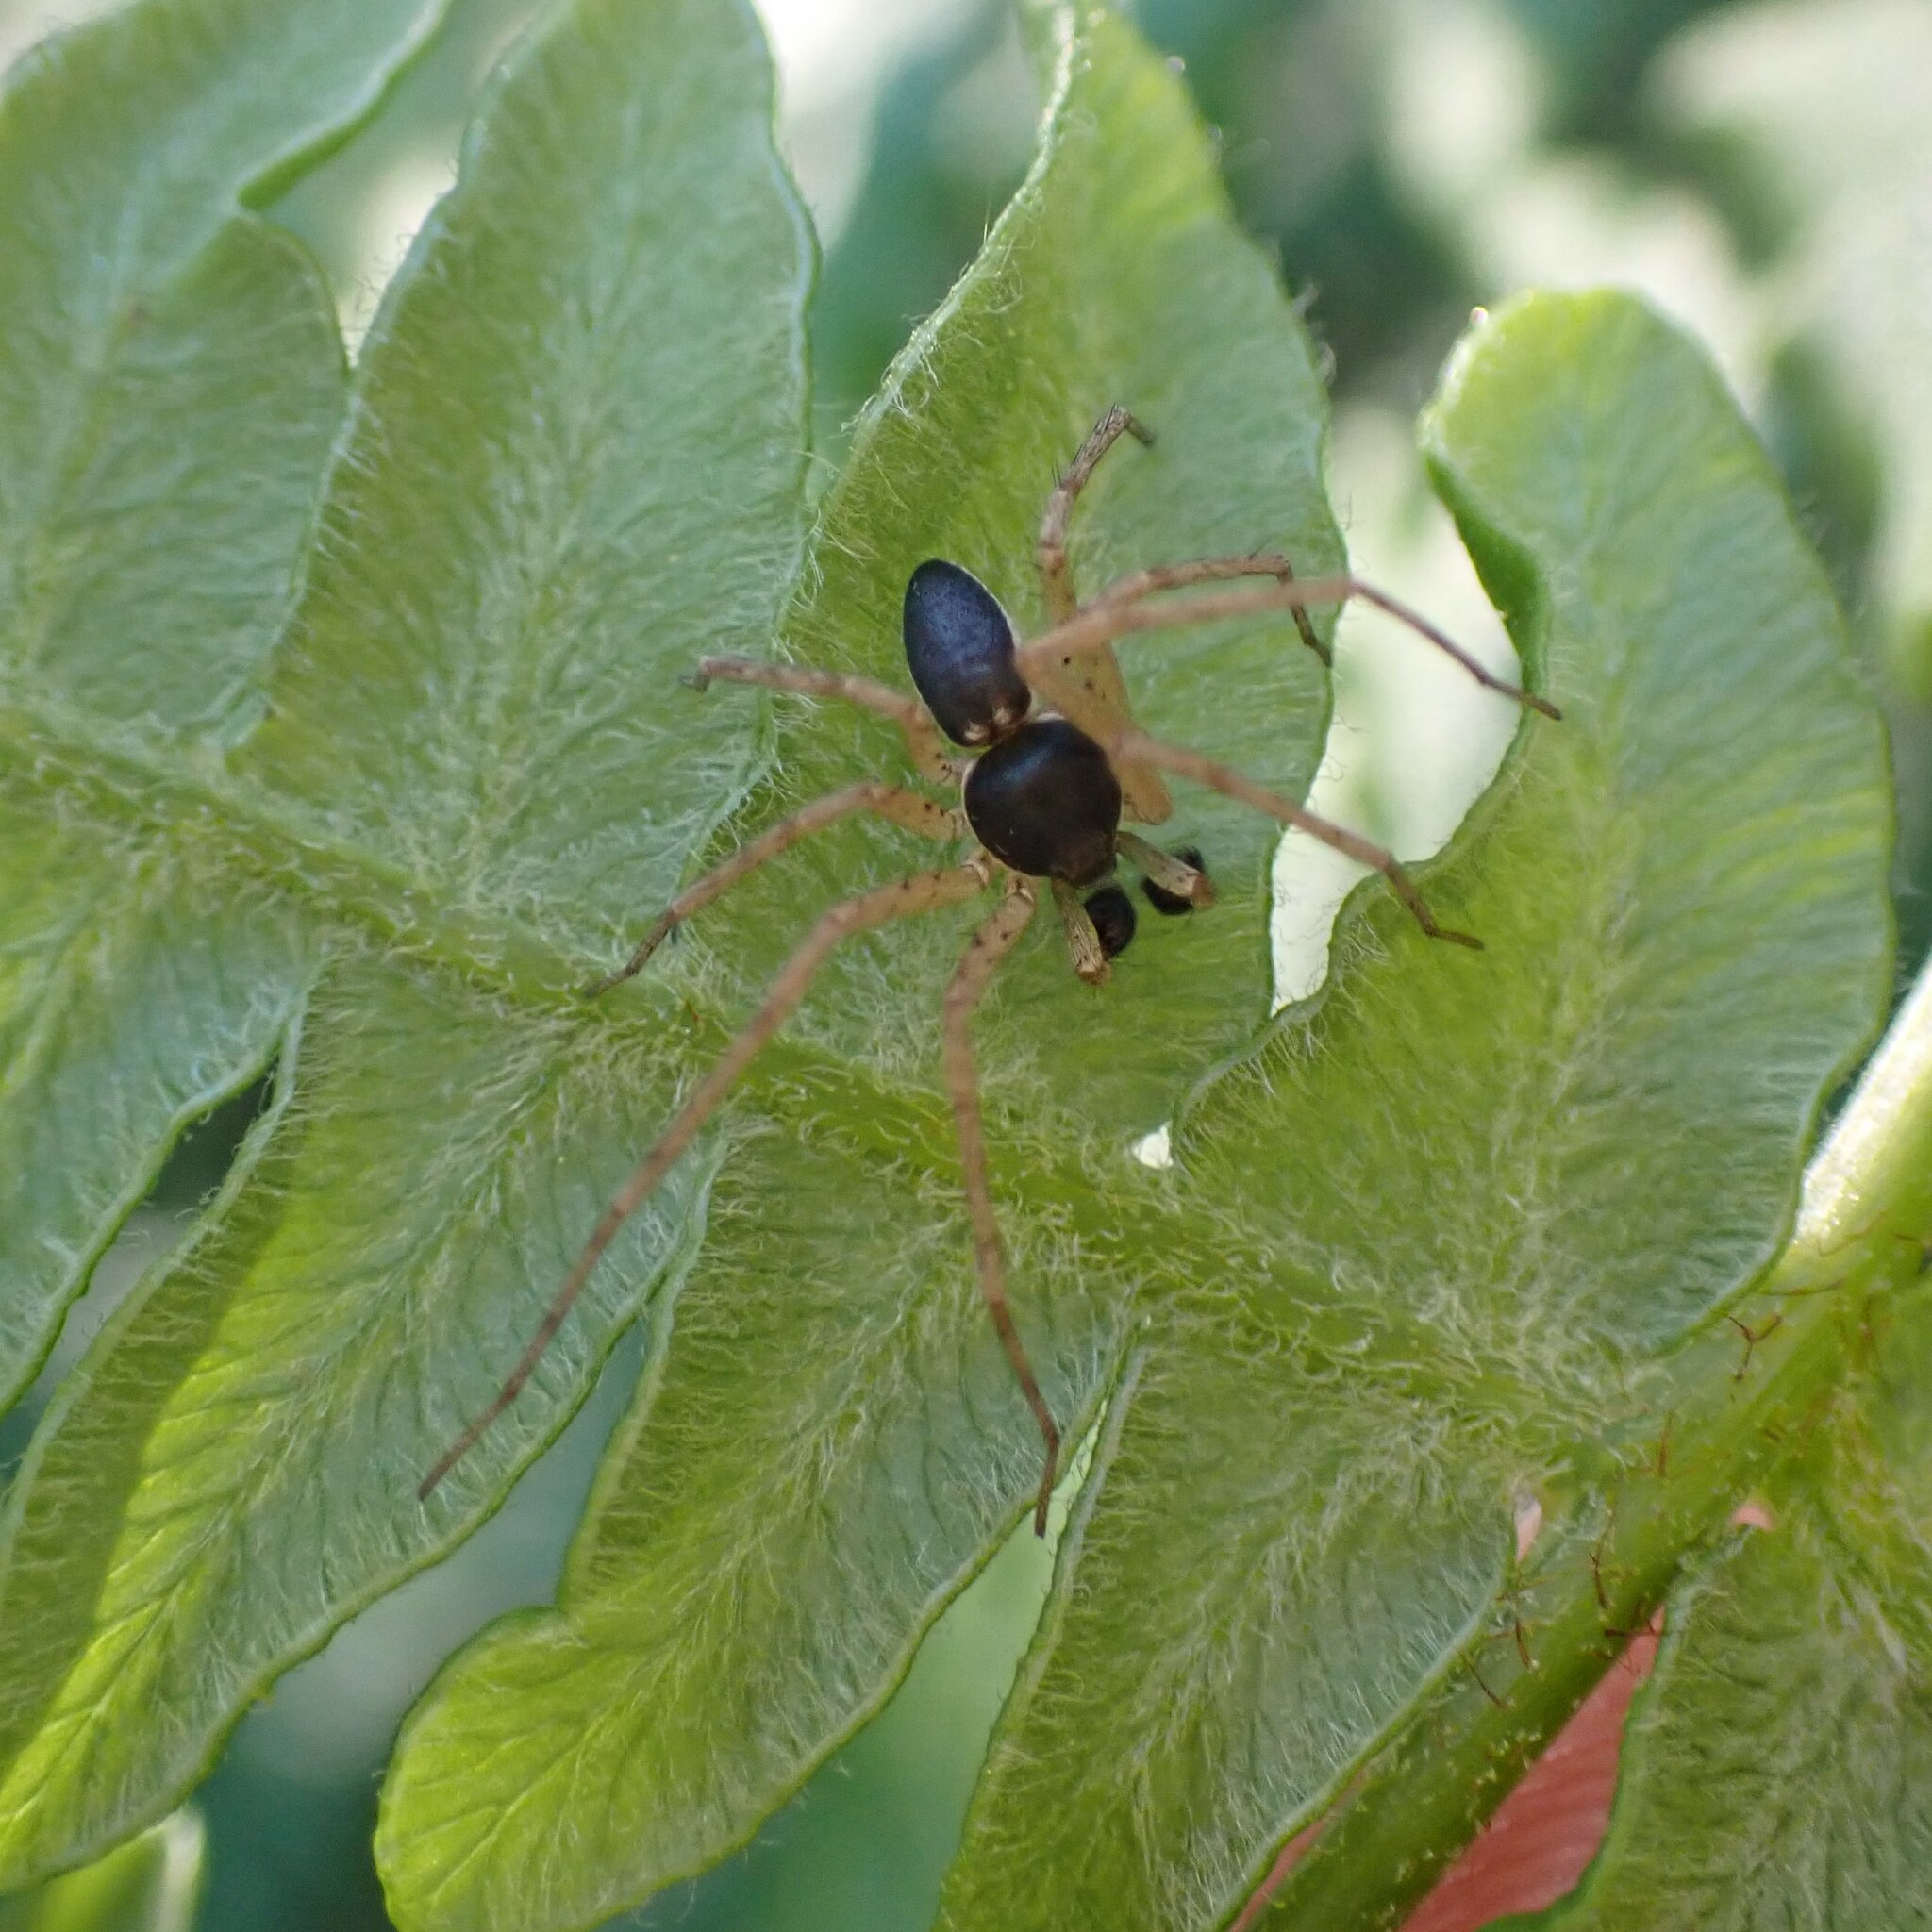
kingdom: Animalia
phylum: Arthropoda
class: Arachnida
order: Araneae
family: Philodromidae
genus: Philodromus
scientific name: Philodromus dispar
